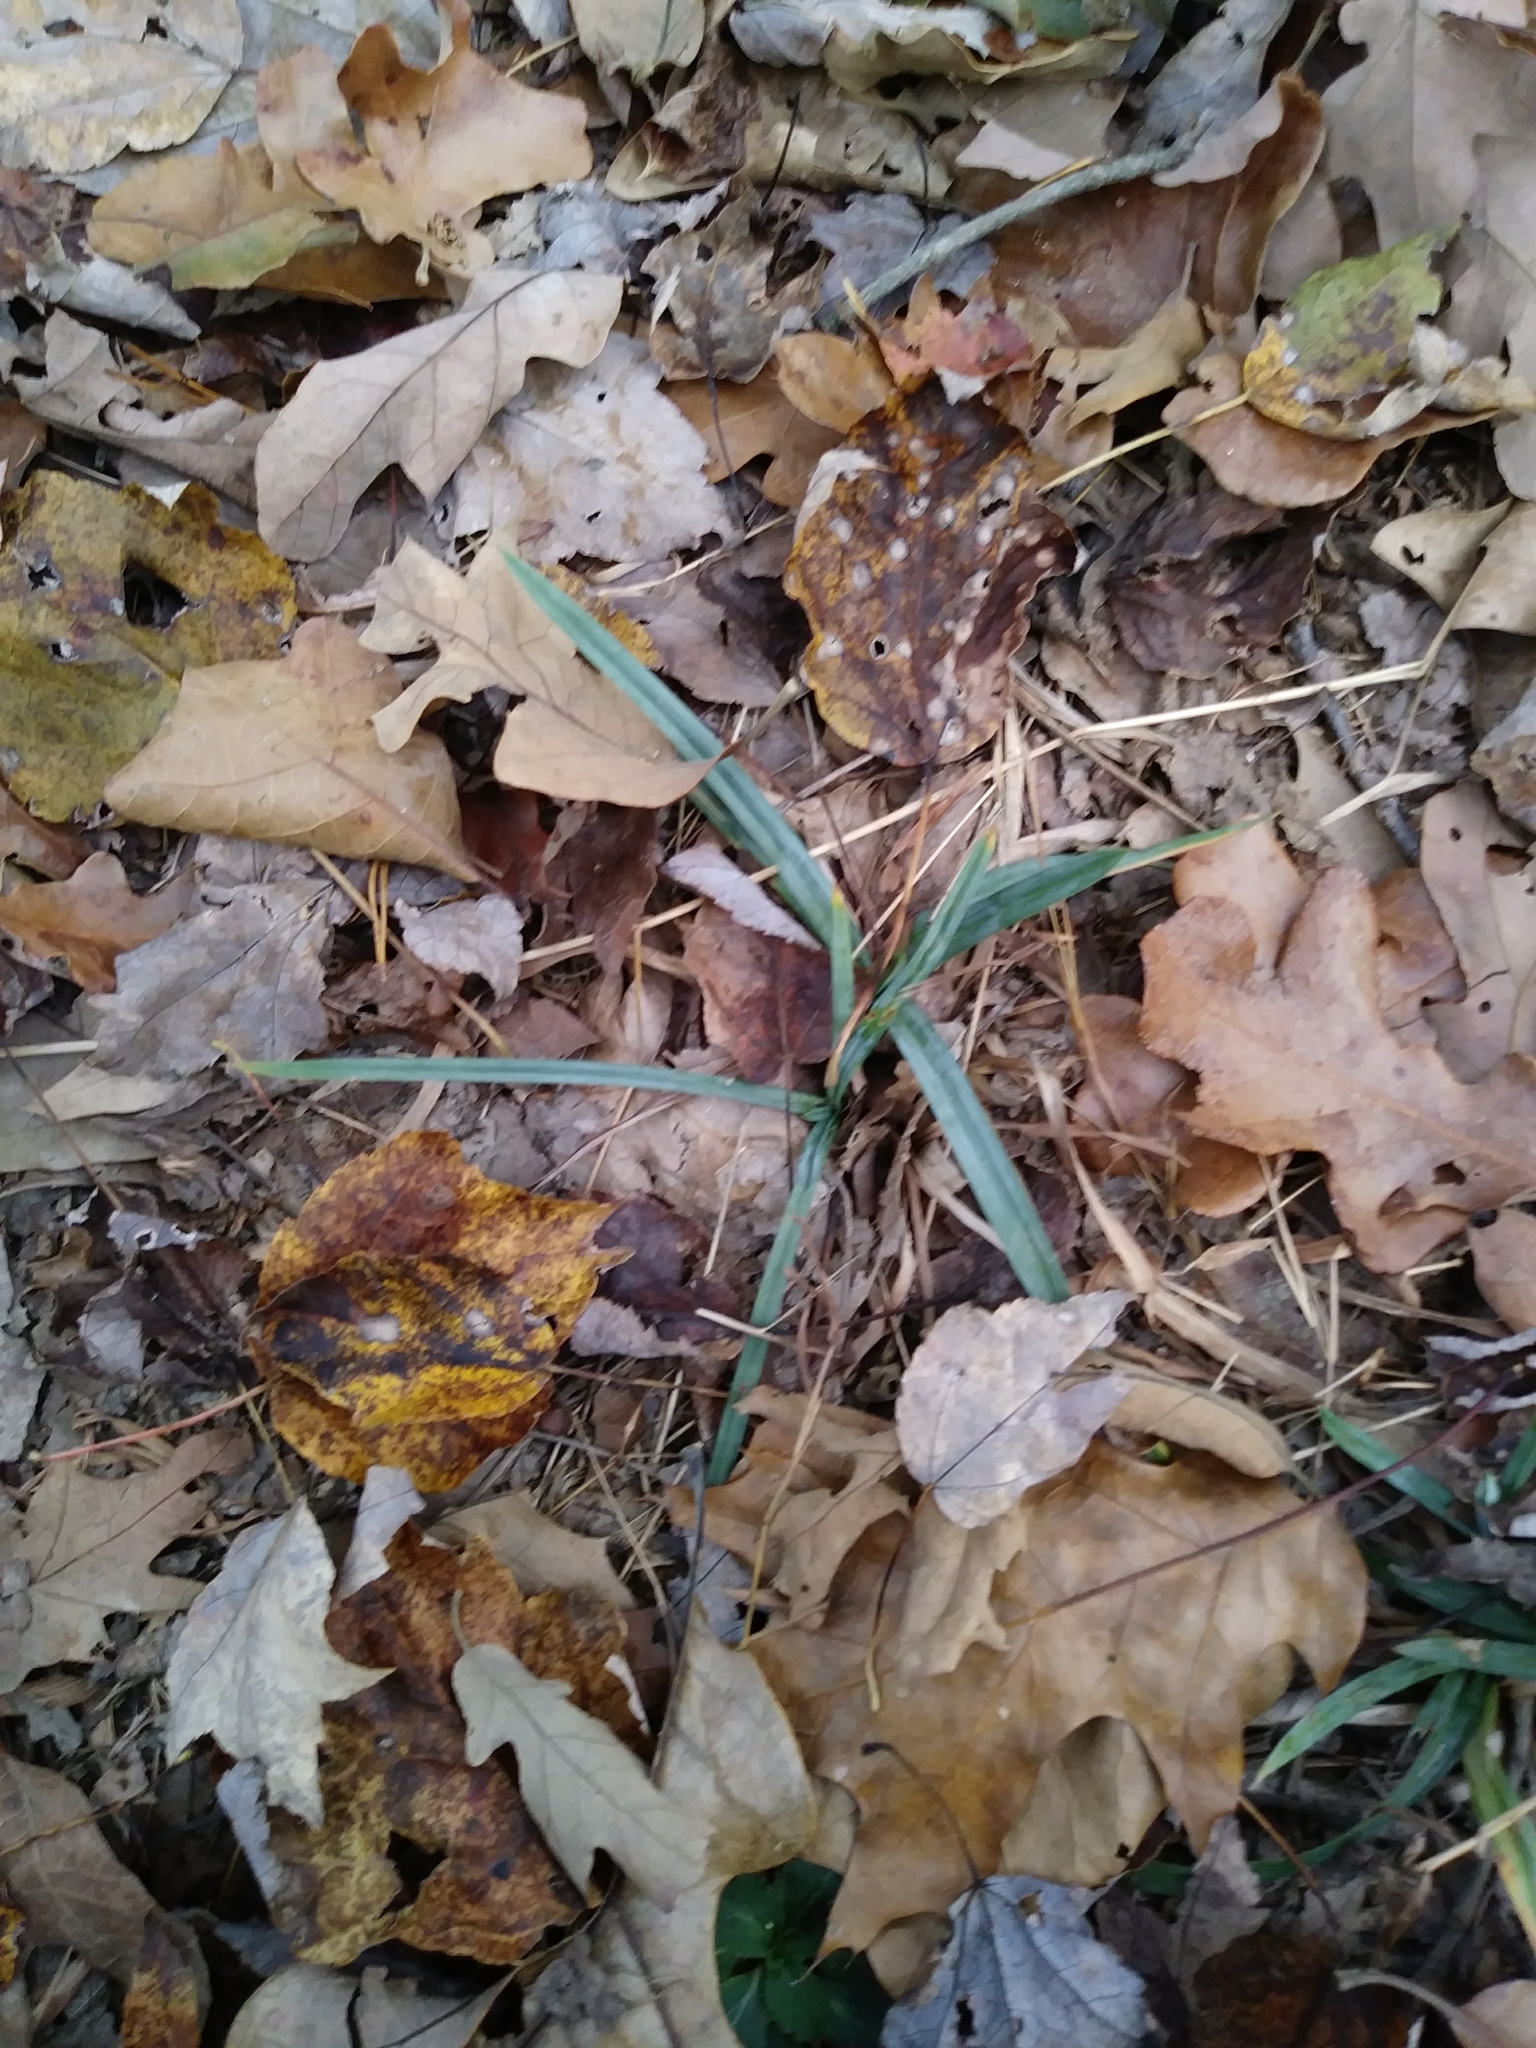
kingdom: Plantae
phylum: Tracheophyta
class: Liliopsida
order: Poales
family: Cyperaceae
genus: Carex
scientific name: Carex glaucodea
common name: Blue sedge
